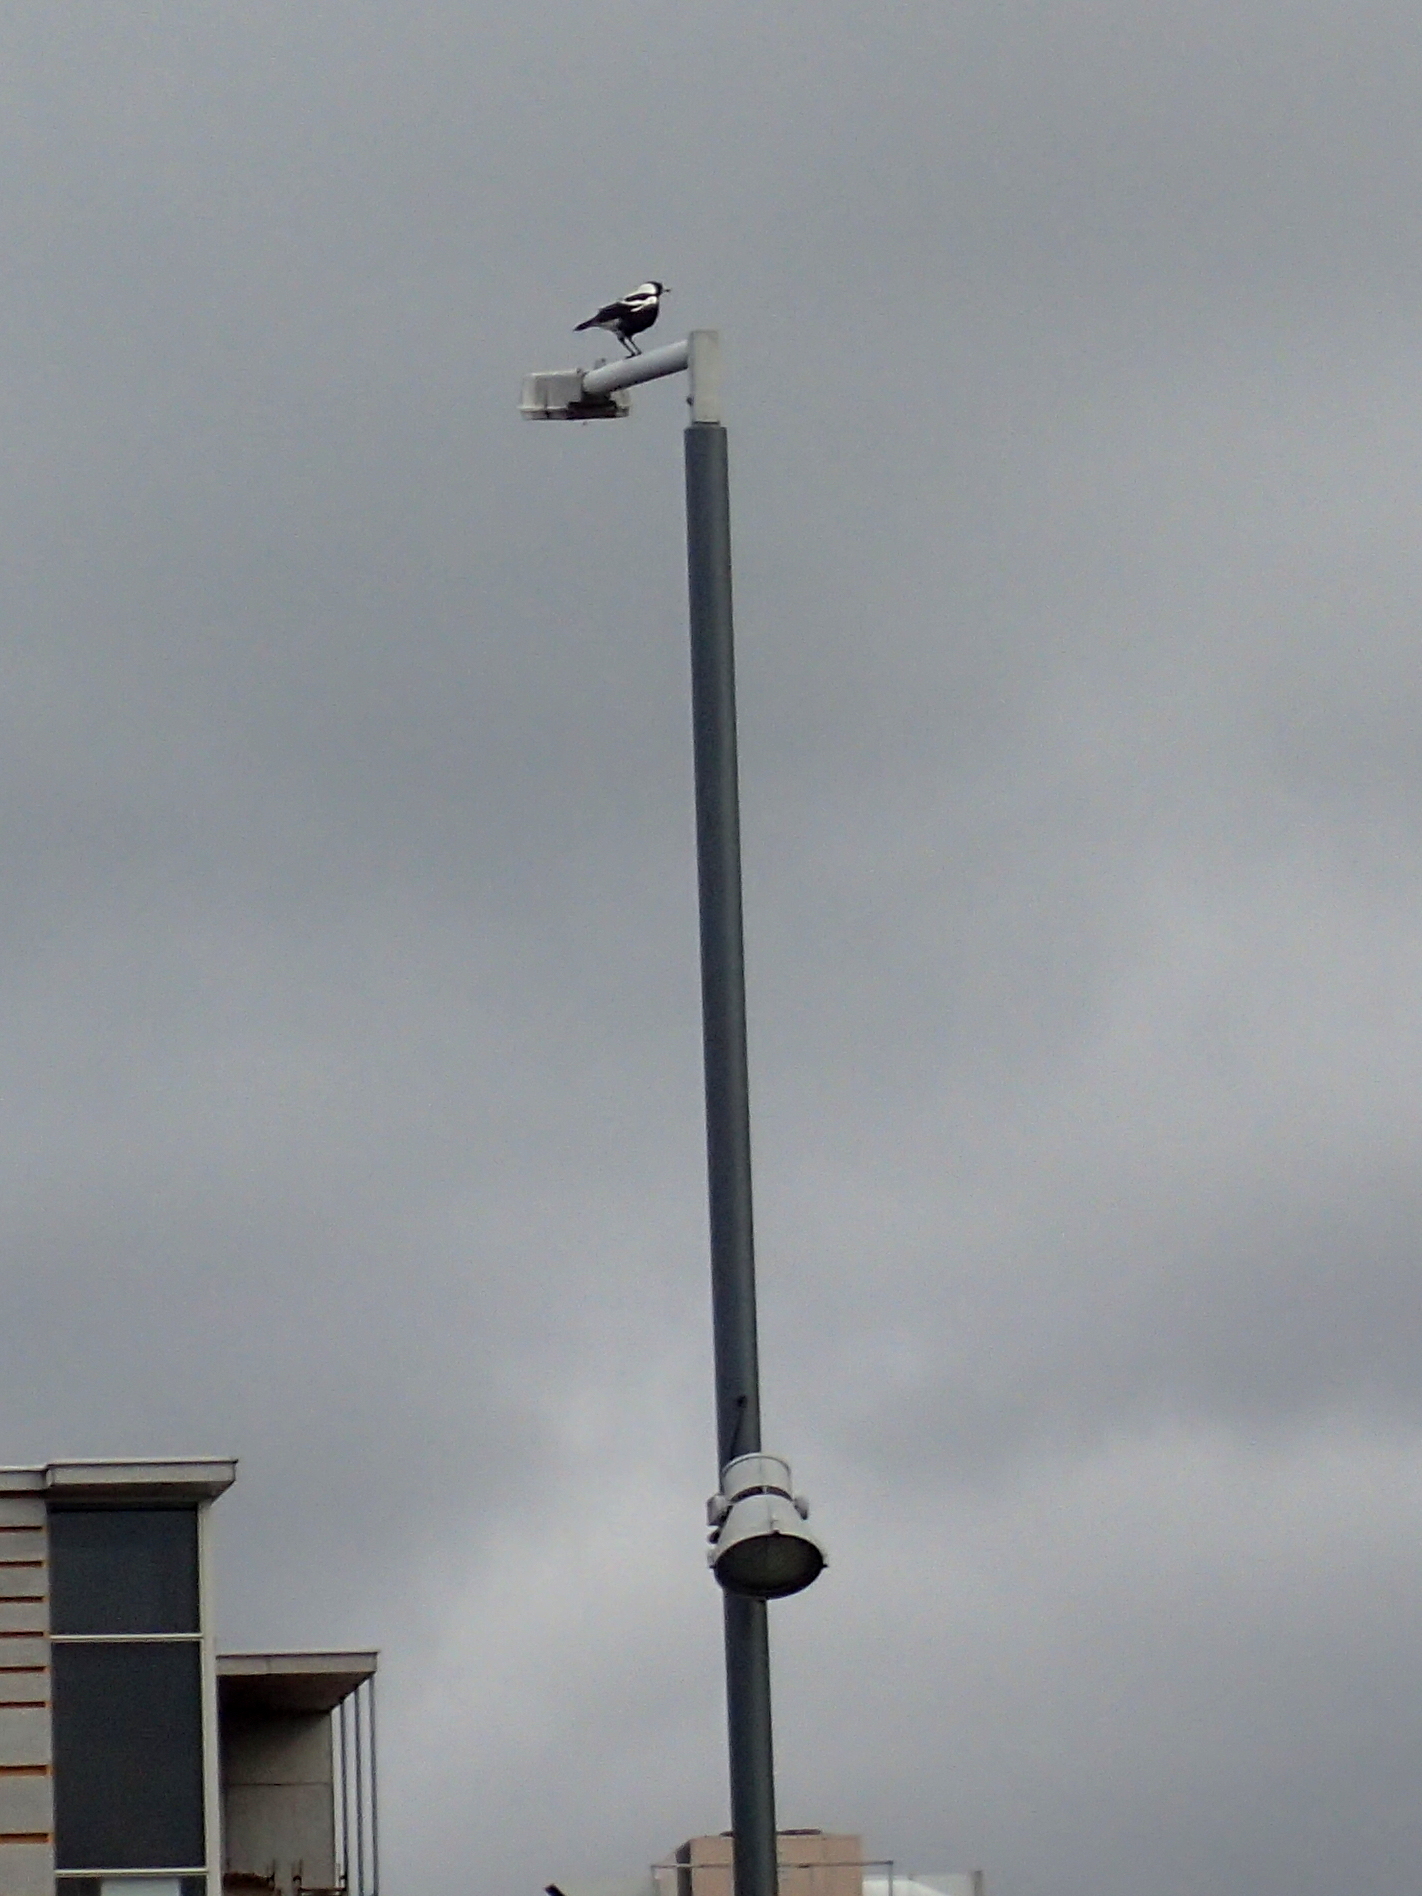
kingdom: Animalia
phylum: Chordata
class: Aves
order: Passeriformes
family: Cracticidae
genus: Gymnorhina
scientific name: Gymnorhina tibicen
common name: Australian magpie
